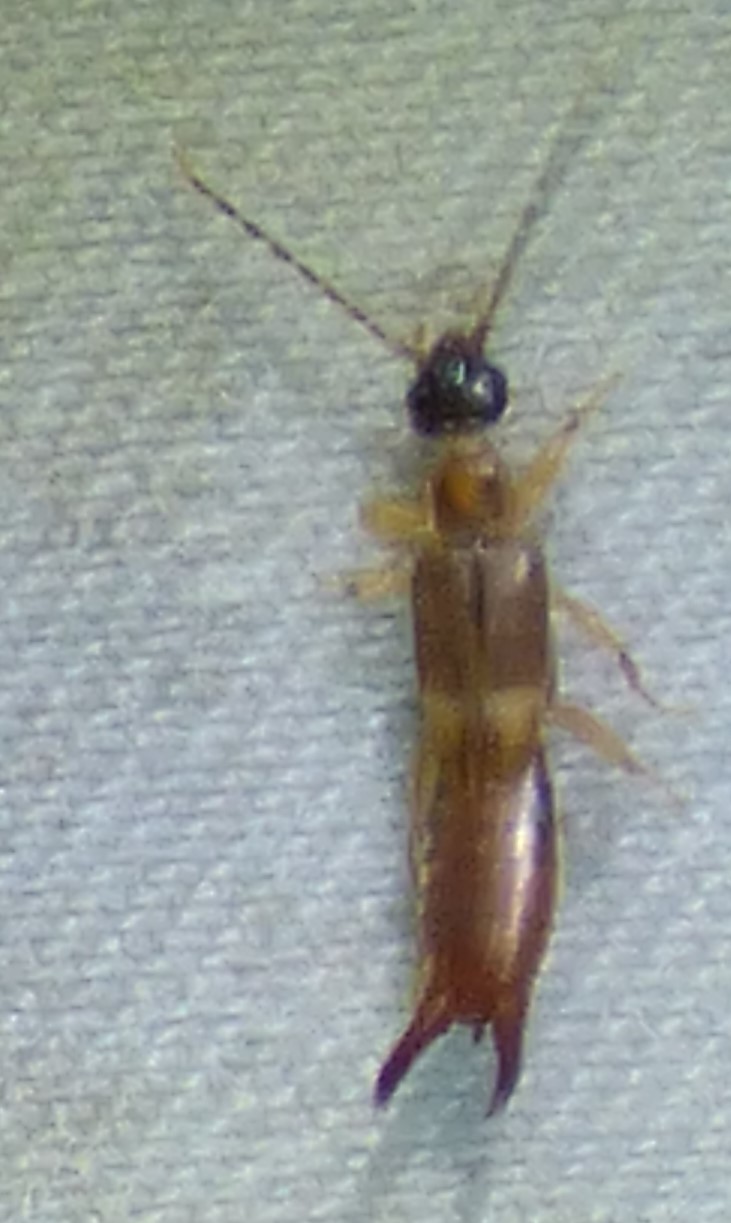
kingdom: Animalia
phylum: Arthropoda
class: Insecta
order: Dermaptera
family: Spongiphoridae
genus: Labia
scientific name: Labia minor
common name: Lesser earwig
